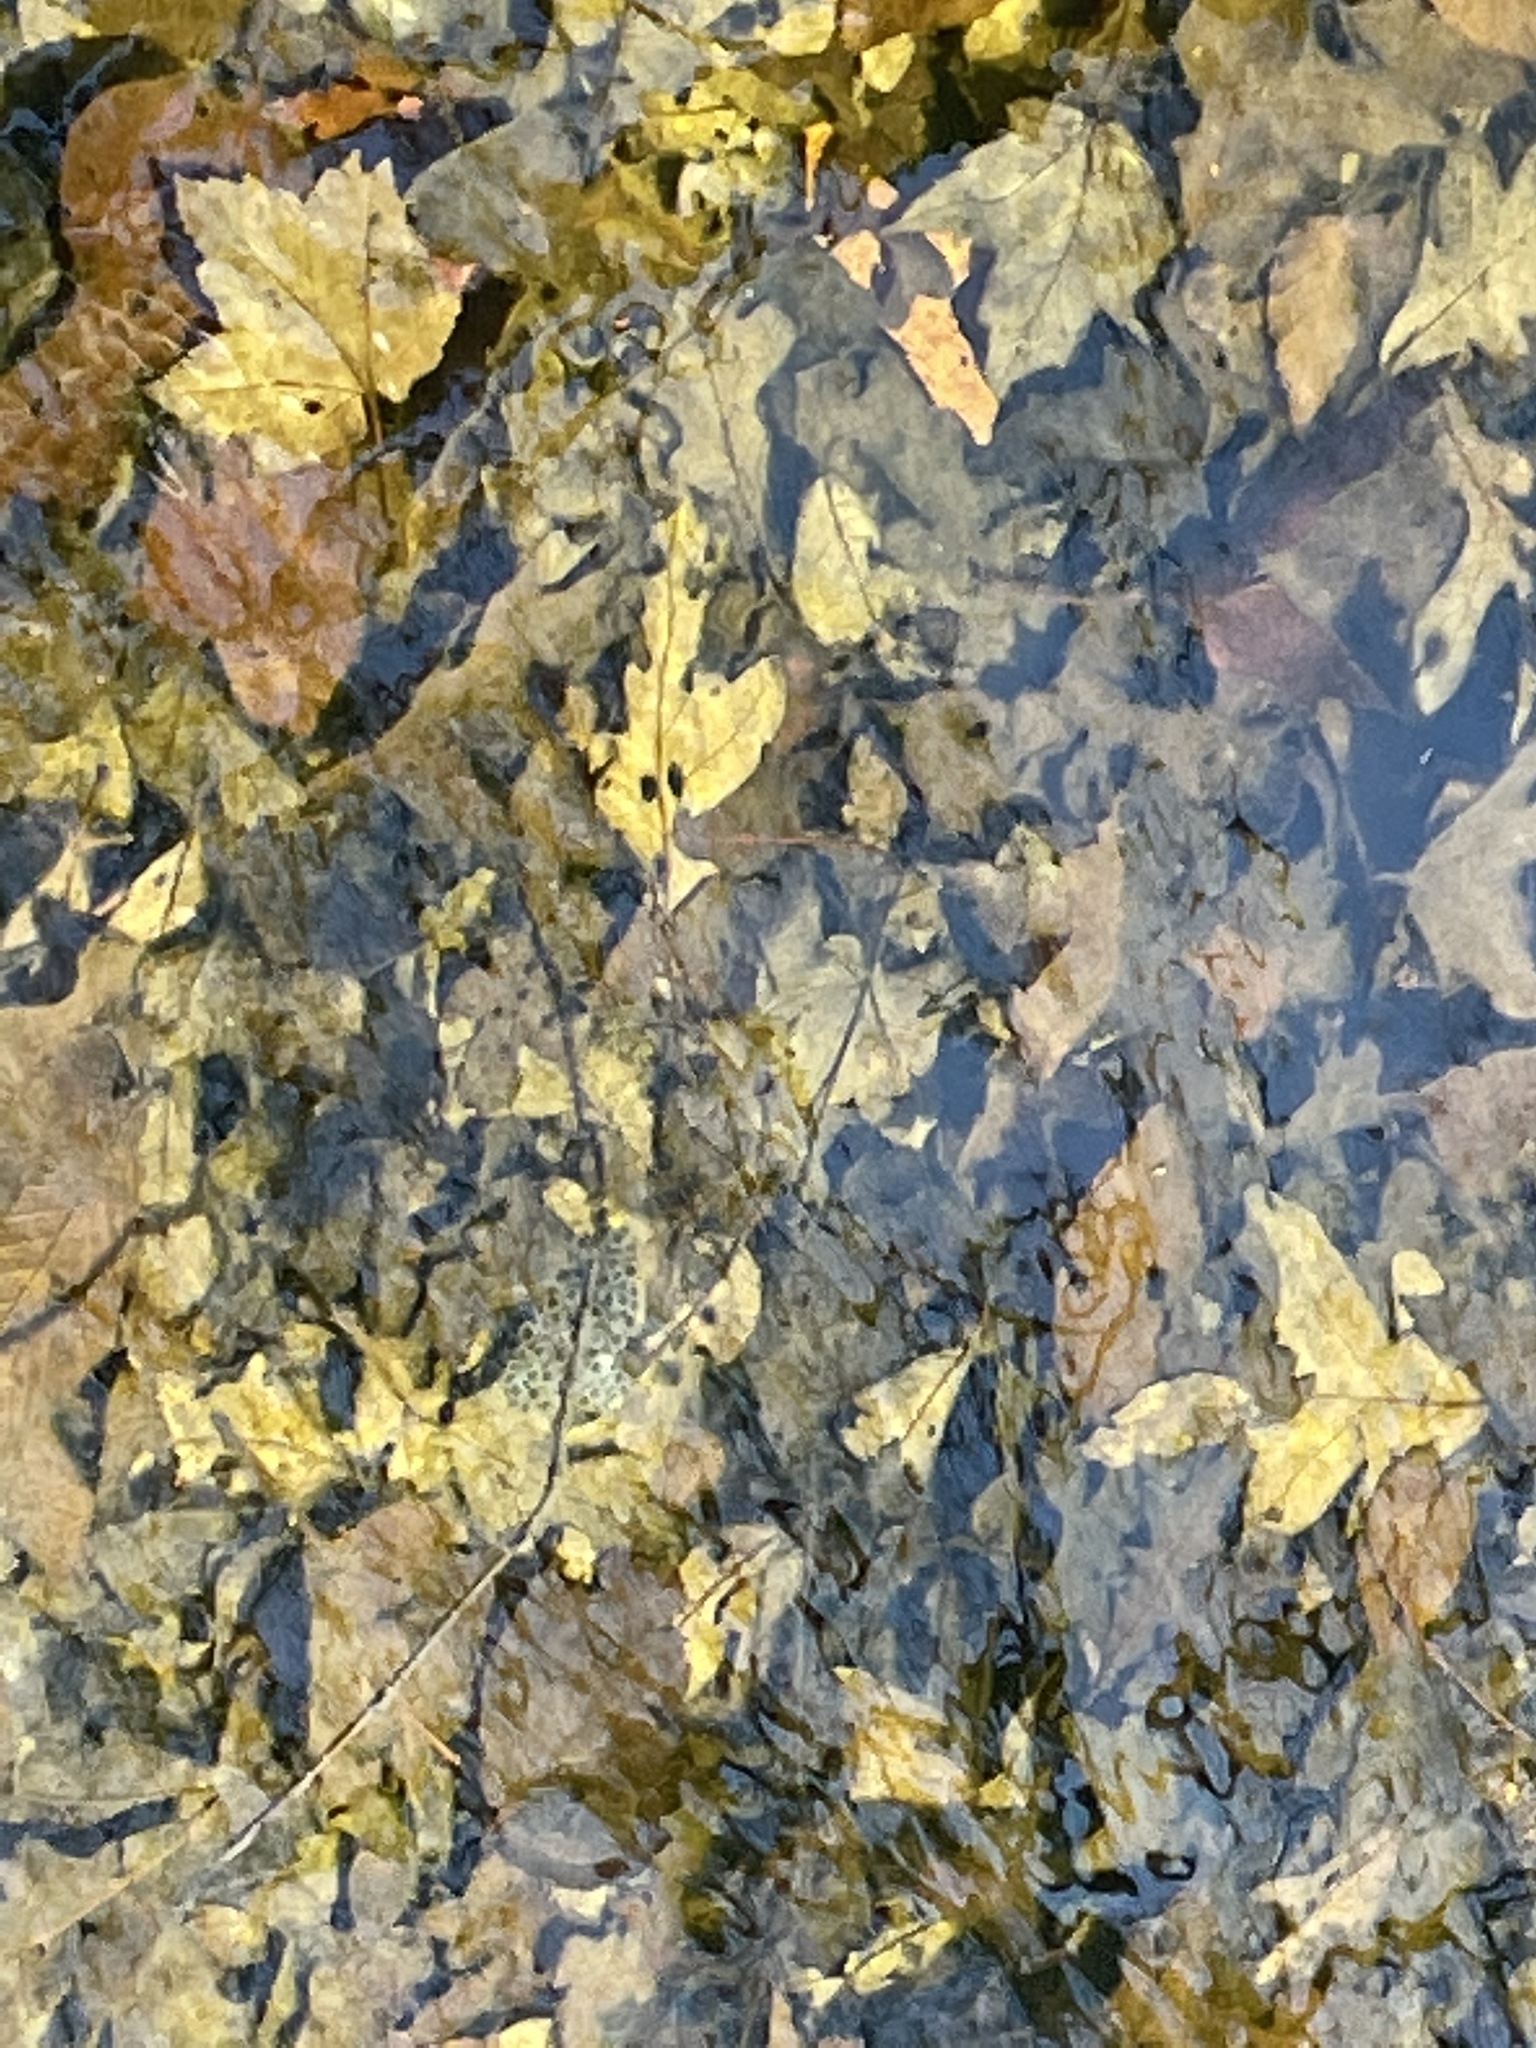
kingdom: Animalia
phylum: Chordata
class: Amphibia
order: Caudata
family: Ambystomatidae
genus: Ambystoma
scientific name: Ambystoma maculatum
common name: Spotted salamander
